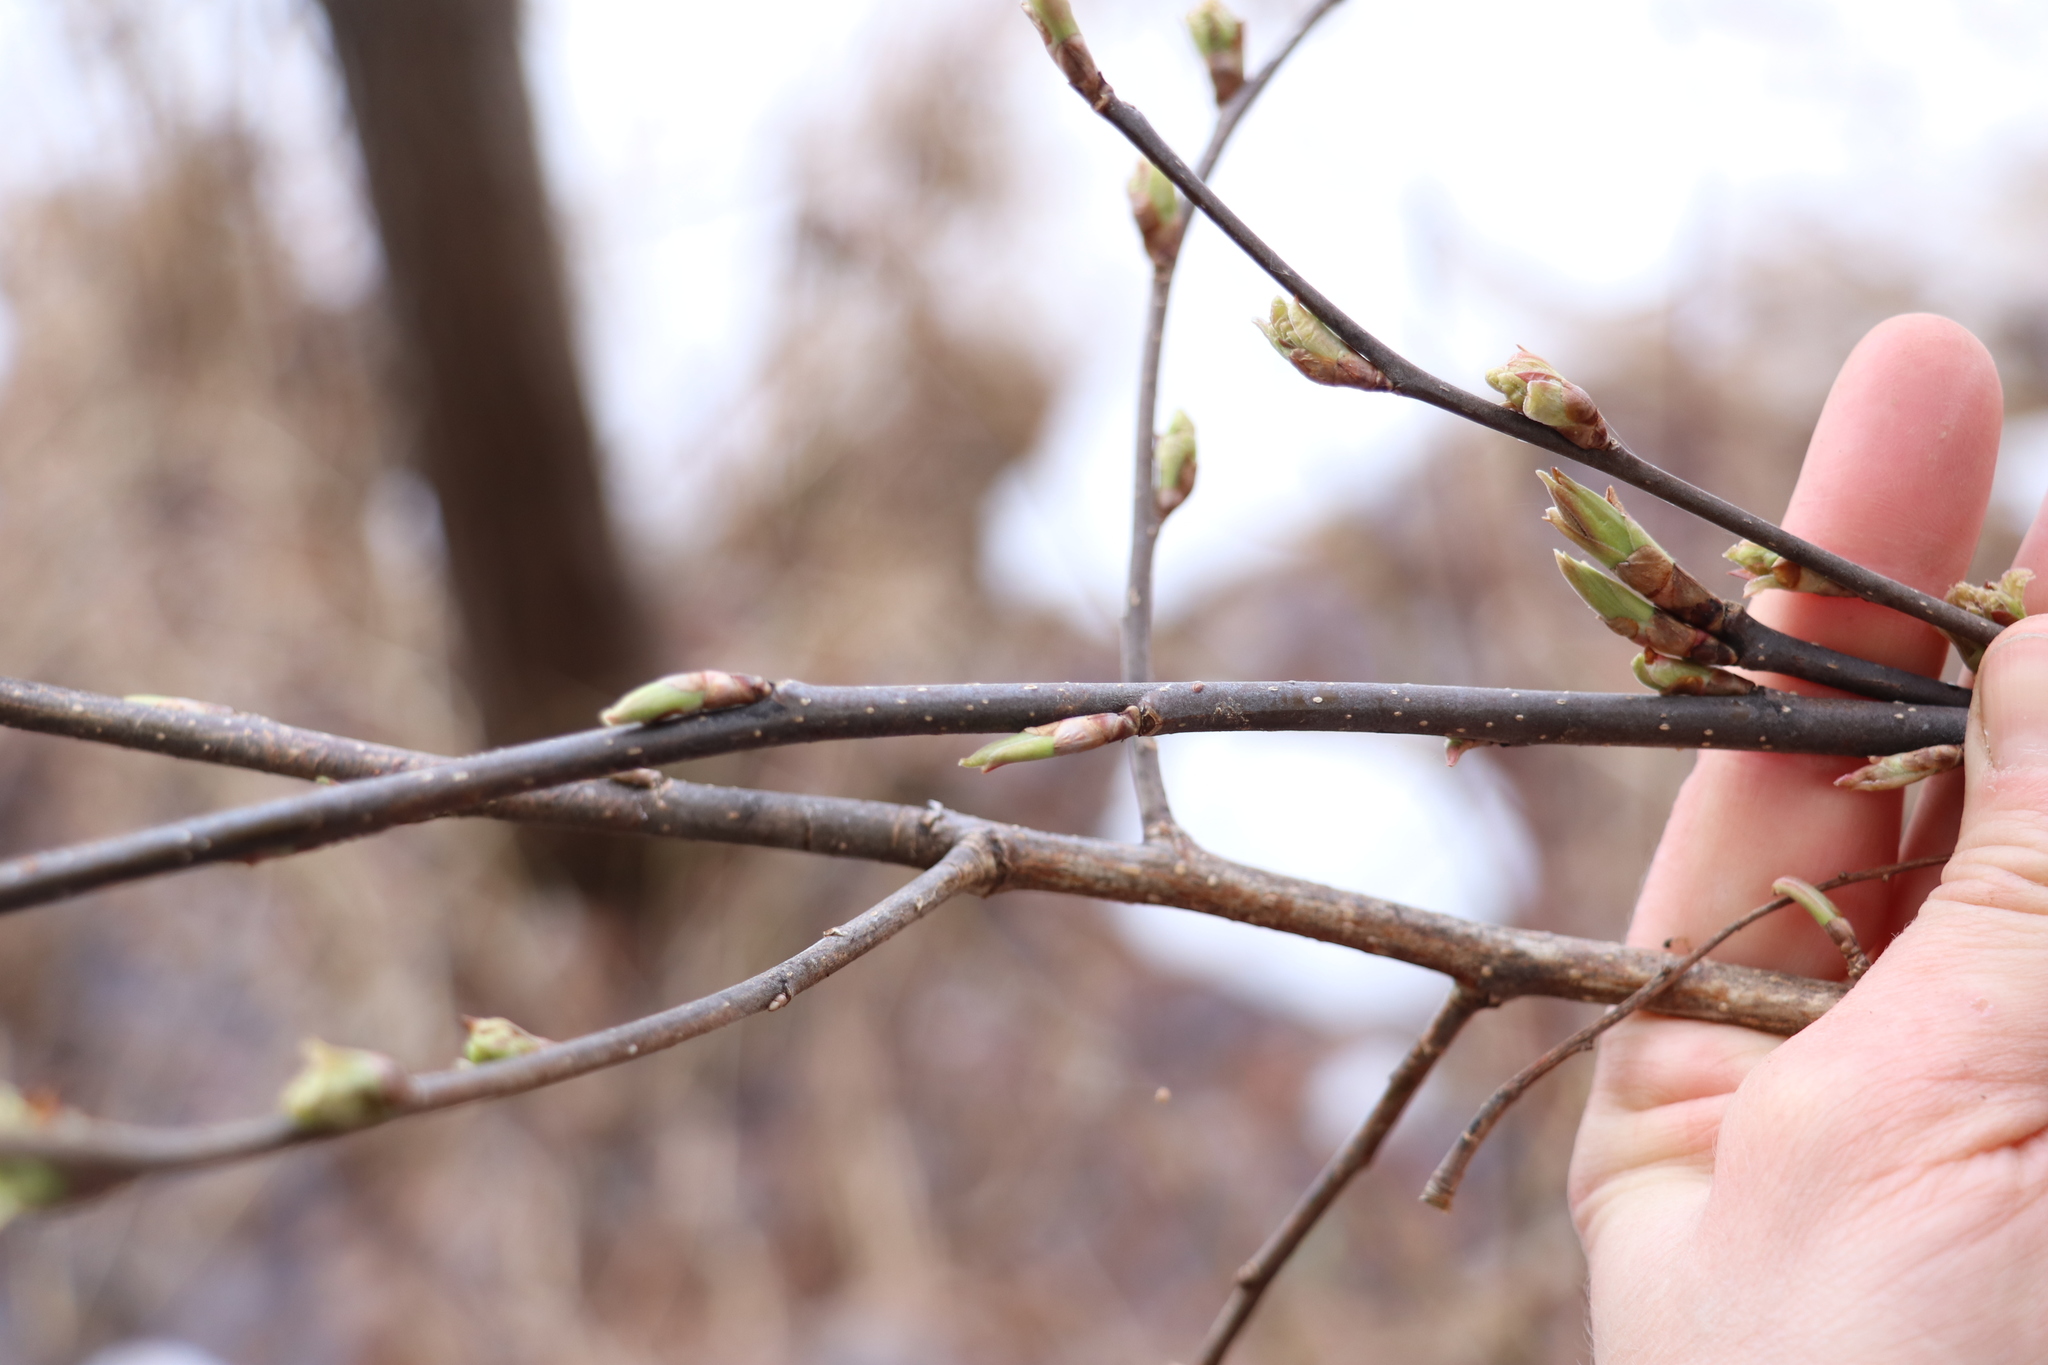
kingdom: Plantae
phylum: Tracheophyta
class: Magnoliopsida
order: Rosales
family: Rosaceae
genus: Prunus
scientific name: Prunus padus
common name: Bird cherry
